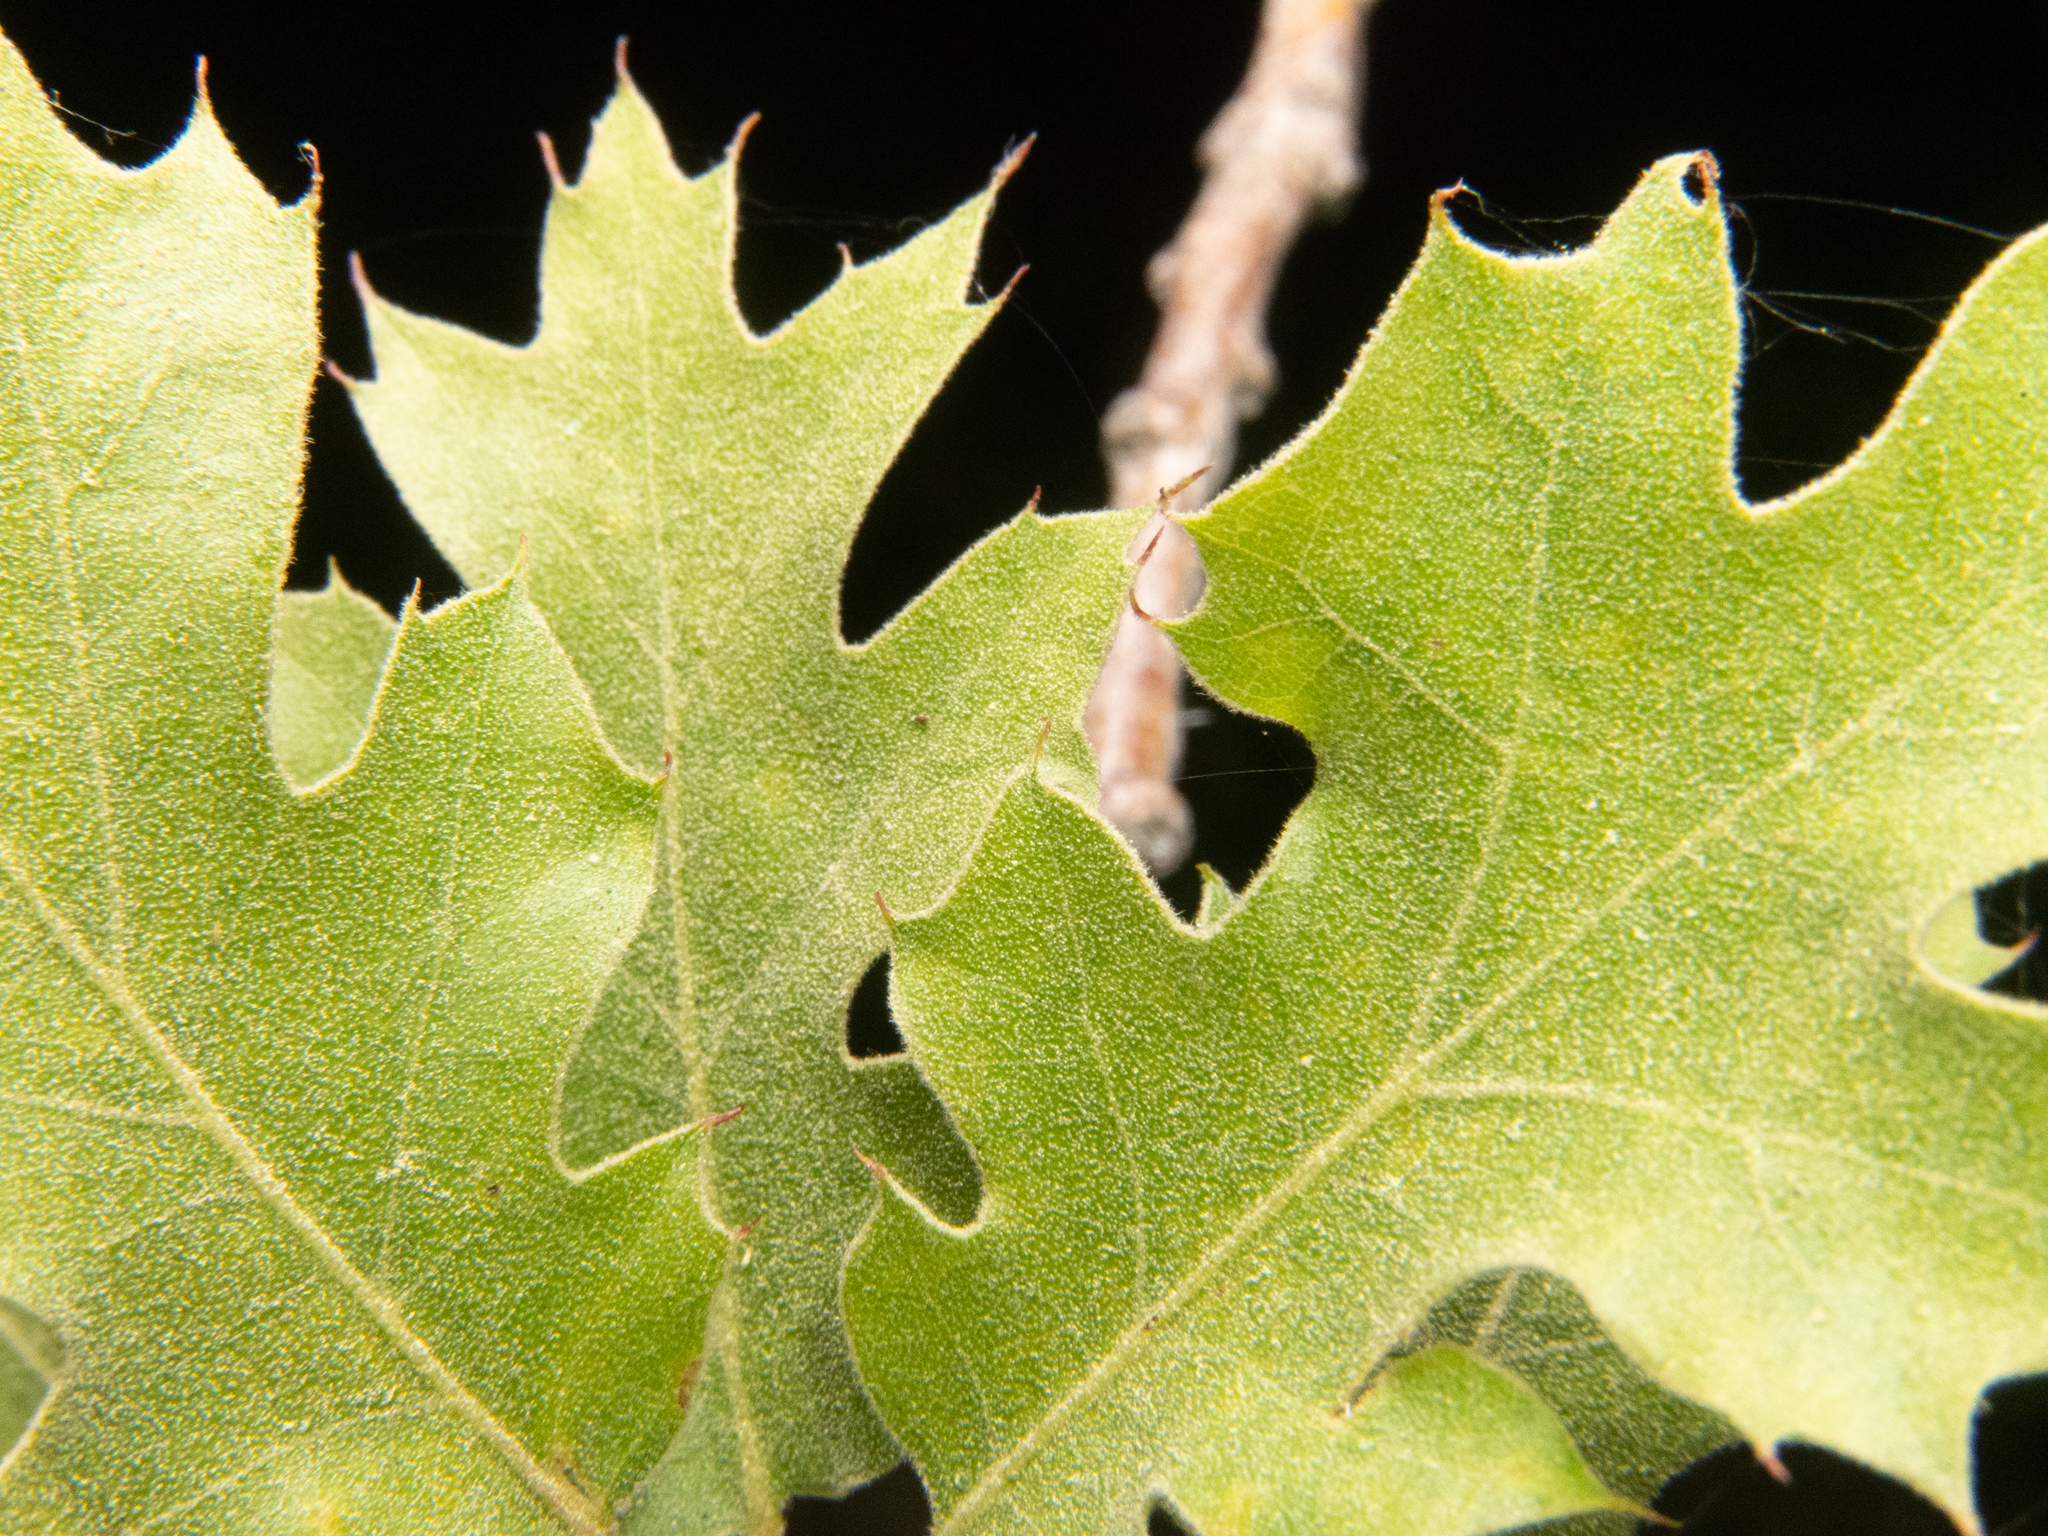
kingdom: Plantae
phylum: Tracheophyta
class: Magnoliopsida
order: Fagales
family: Fagaceae
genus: Quercus
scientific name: Quercus kelloggii
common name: California black oak
